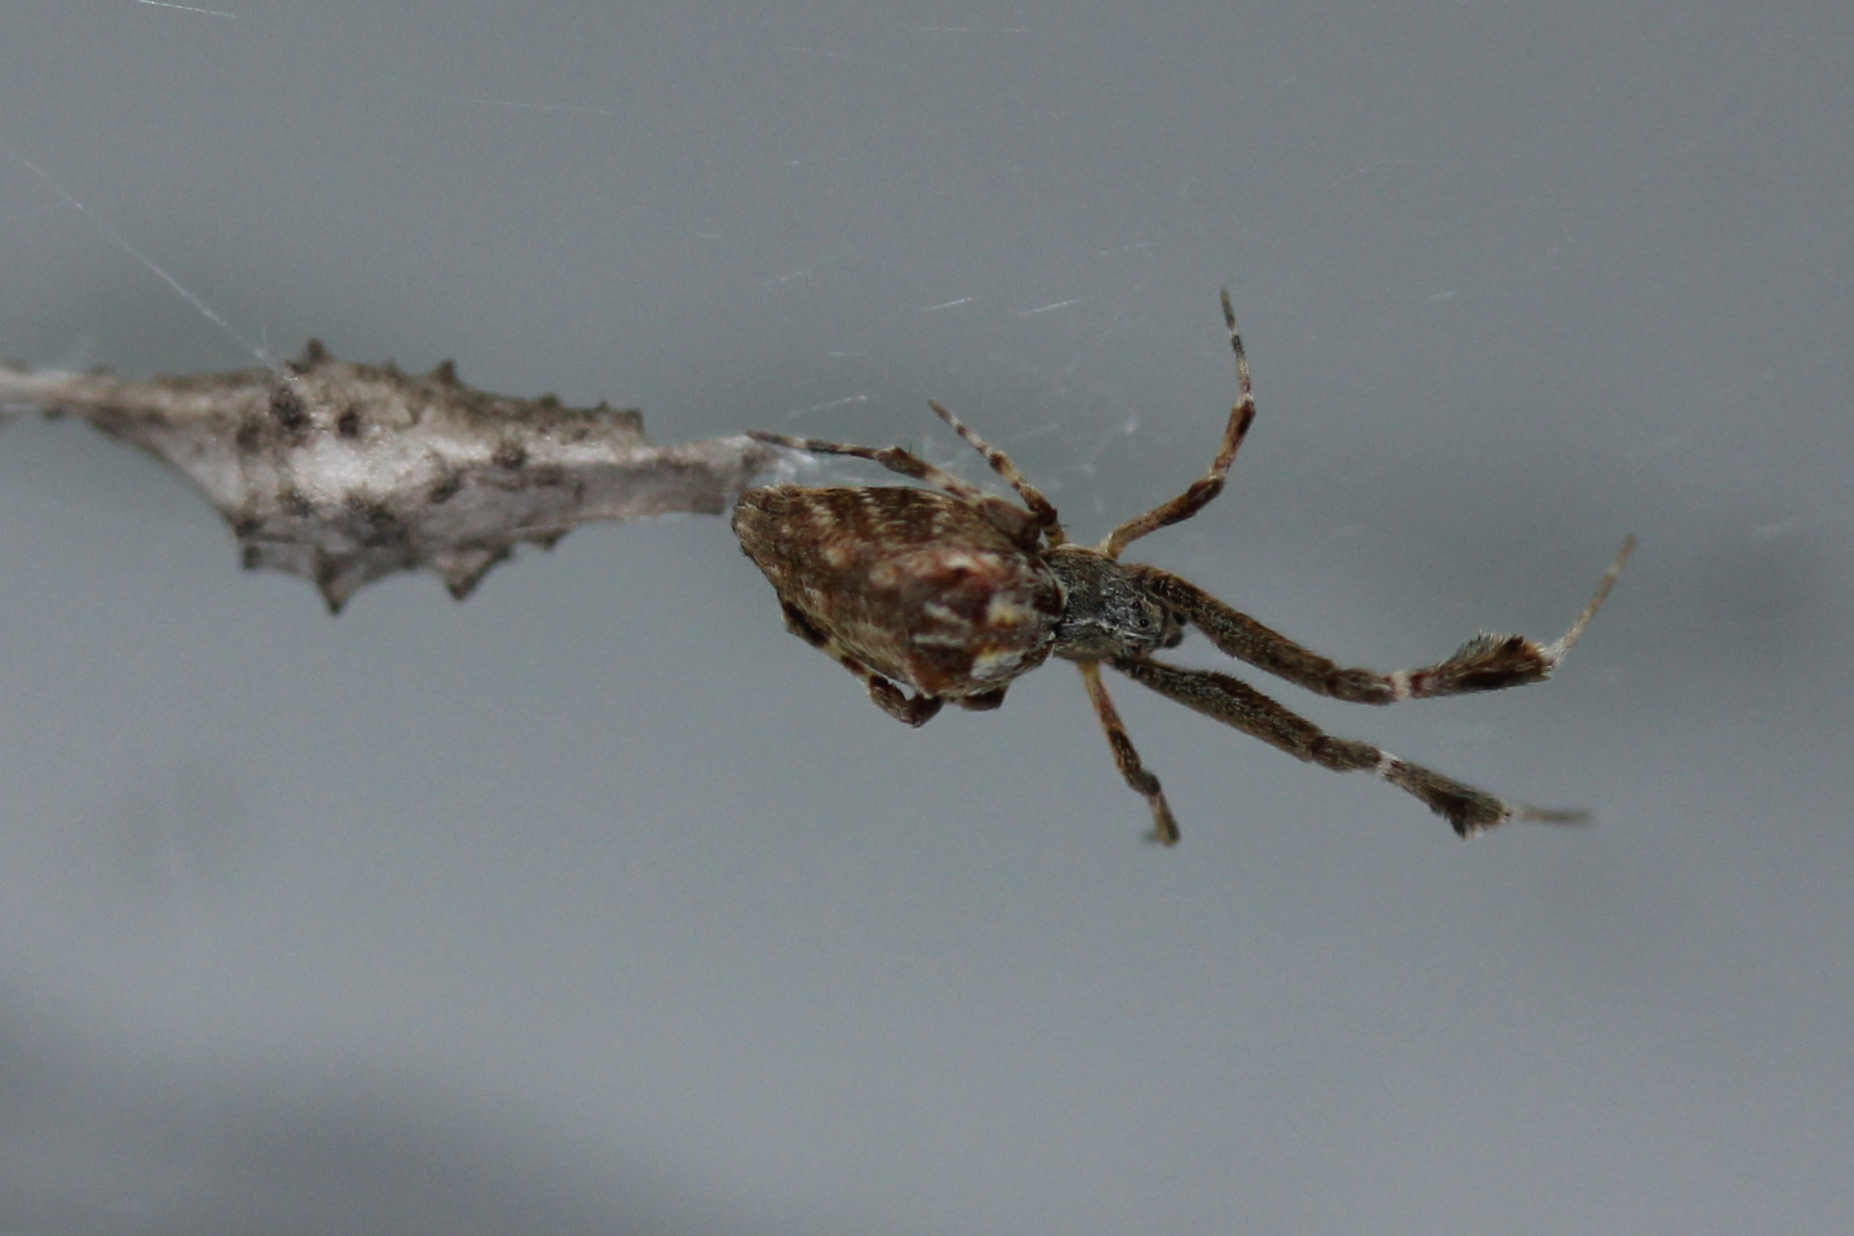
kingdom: Animalia
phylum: Arthropoda
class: Arachnida
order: Araneae
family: Uloboridae
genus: Uloborus
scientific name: Uloborus glomosus
